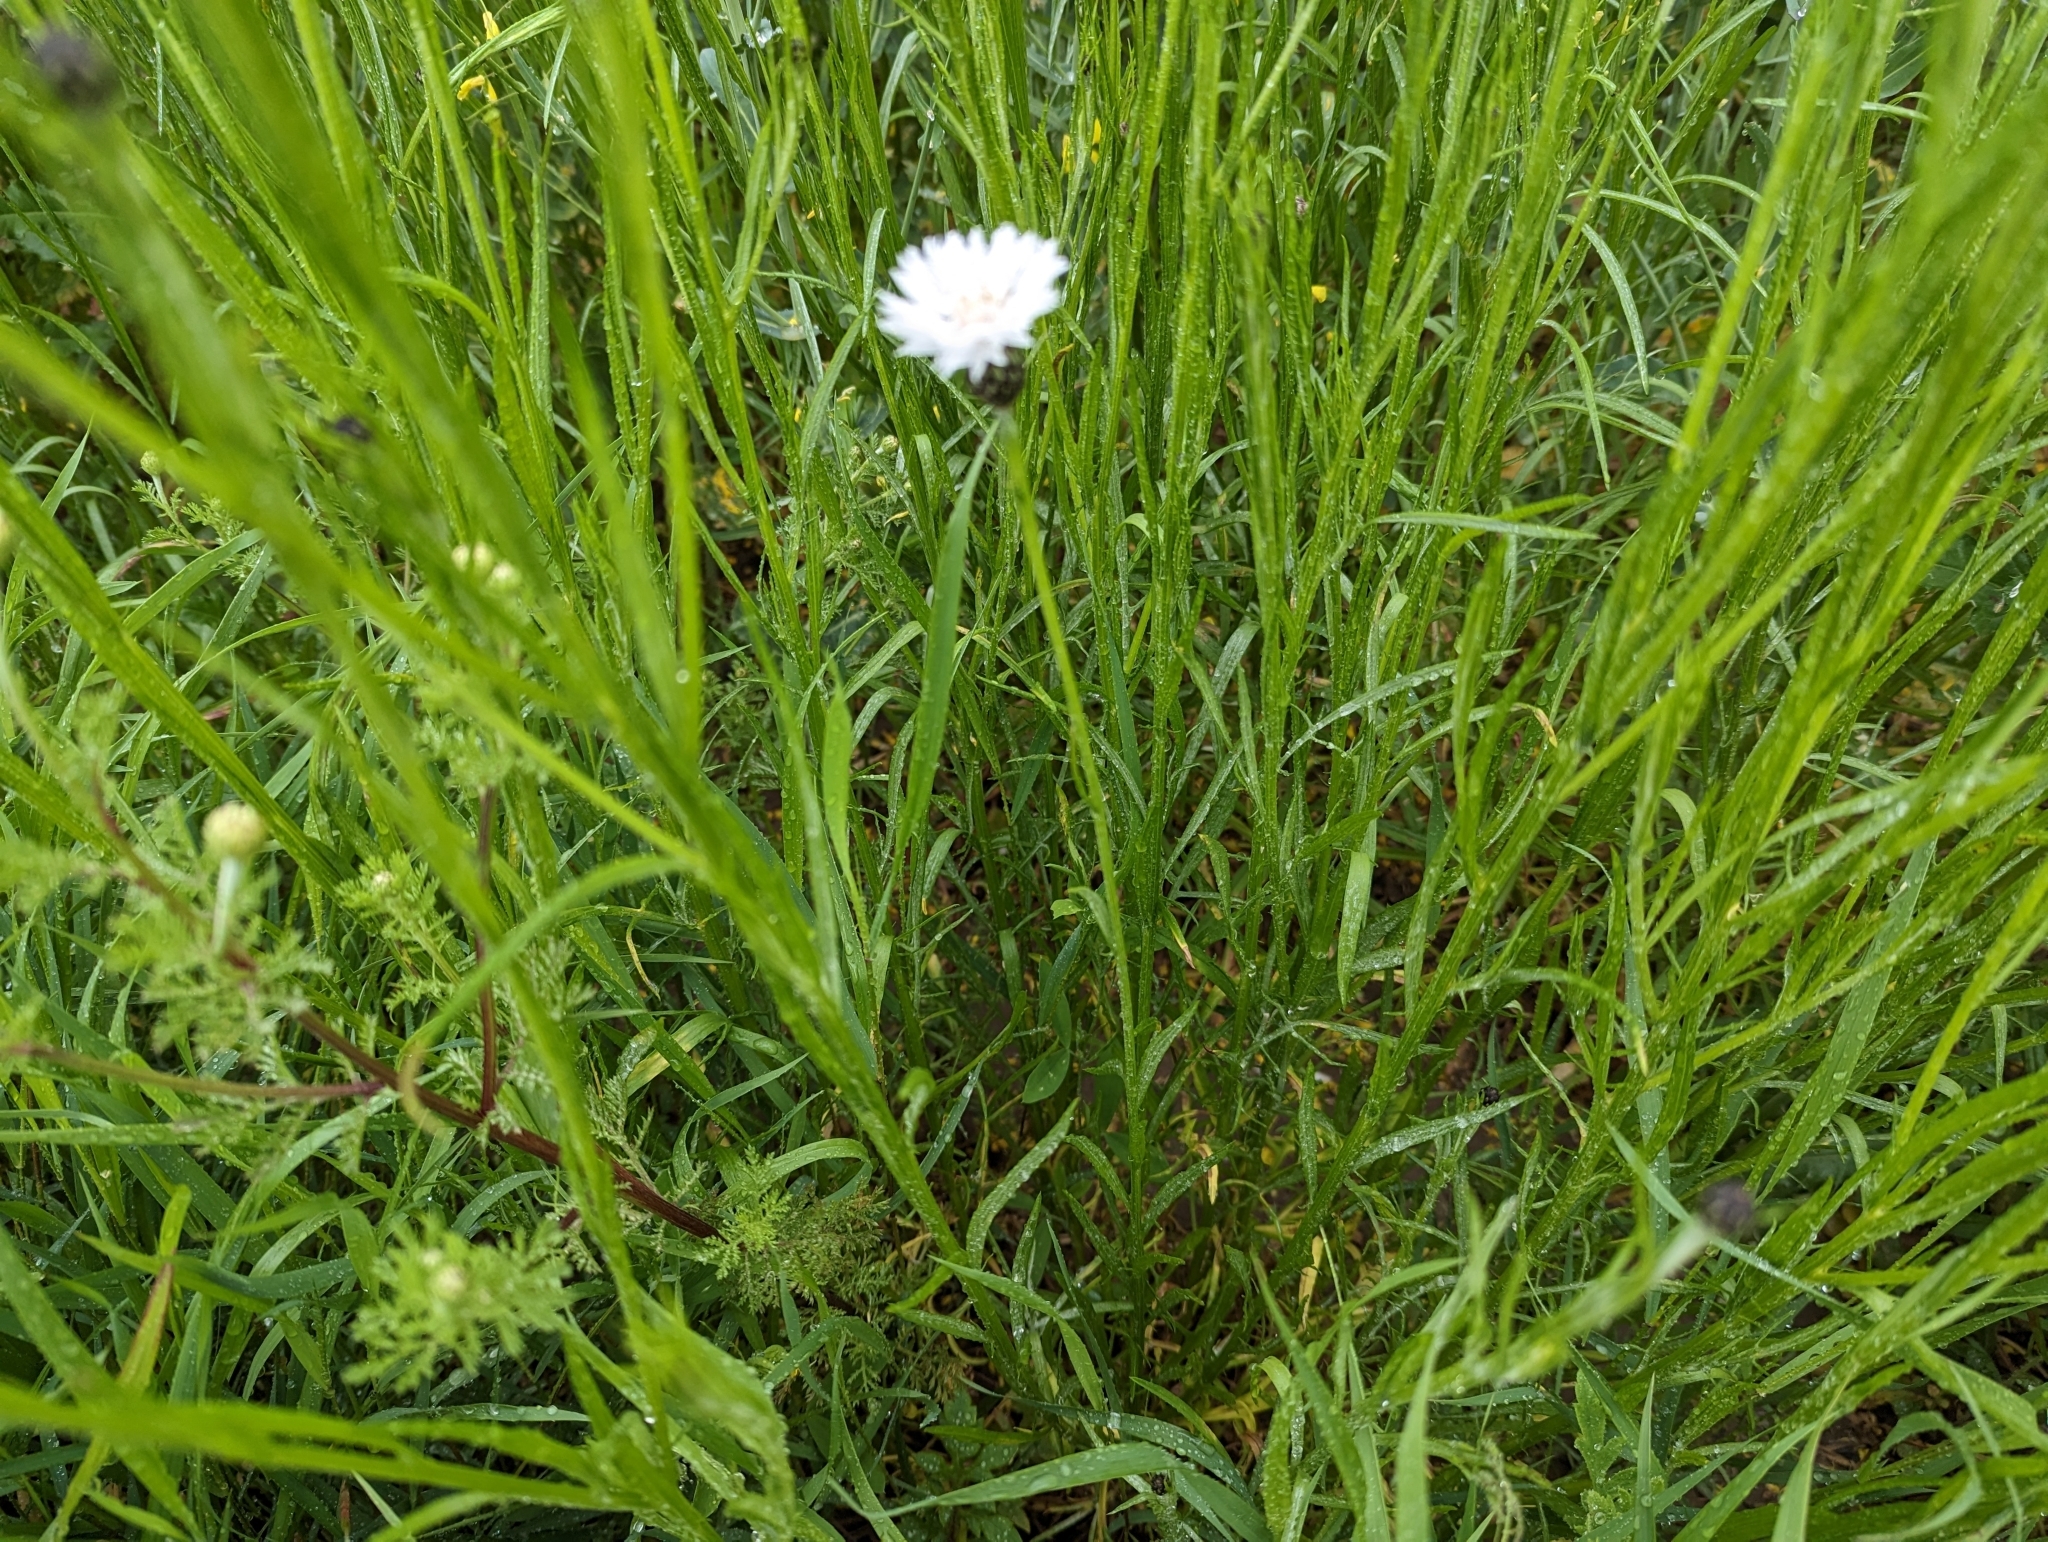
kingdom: Plantae
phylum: Tracheophyta
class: Magnoliopsida
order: Asterales
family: Asteraceae
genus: Centaurea
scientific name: Centaurea cyanus
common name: Cornflower
